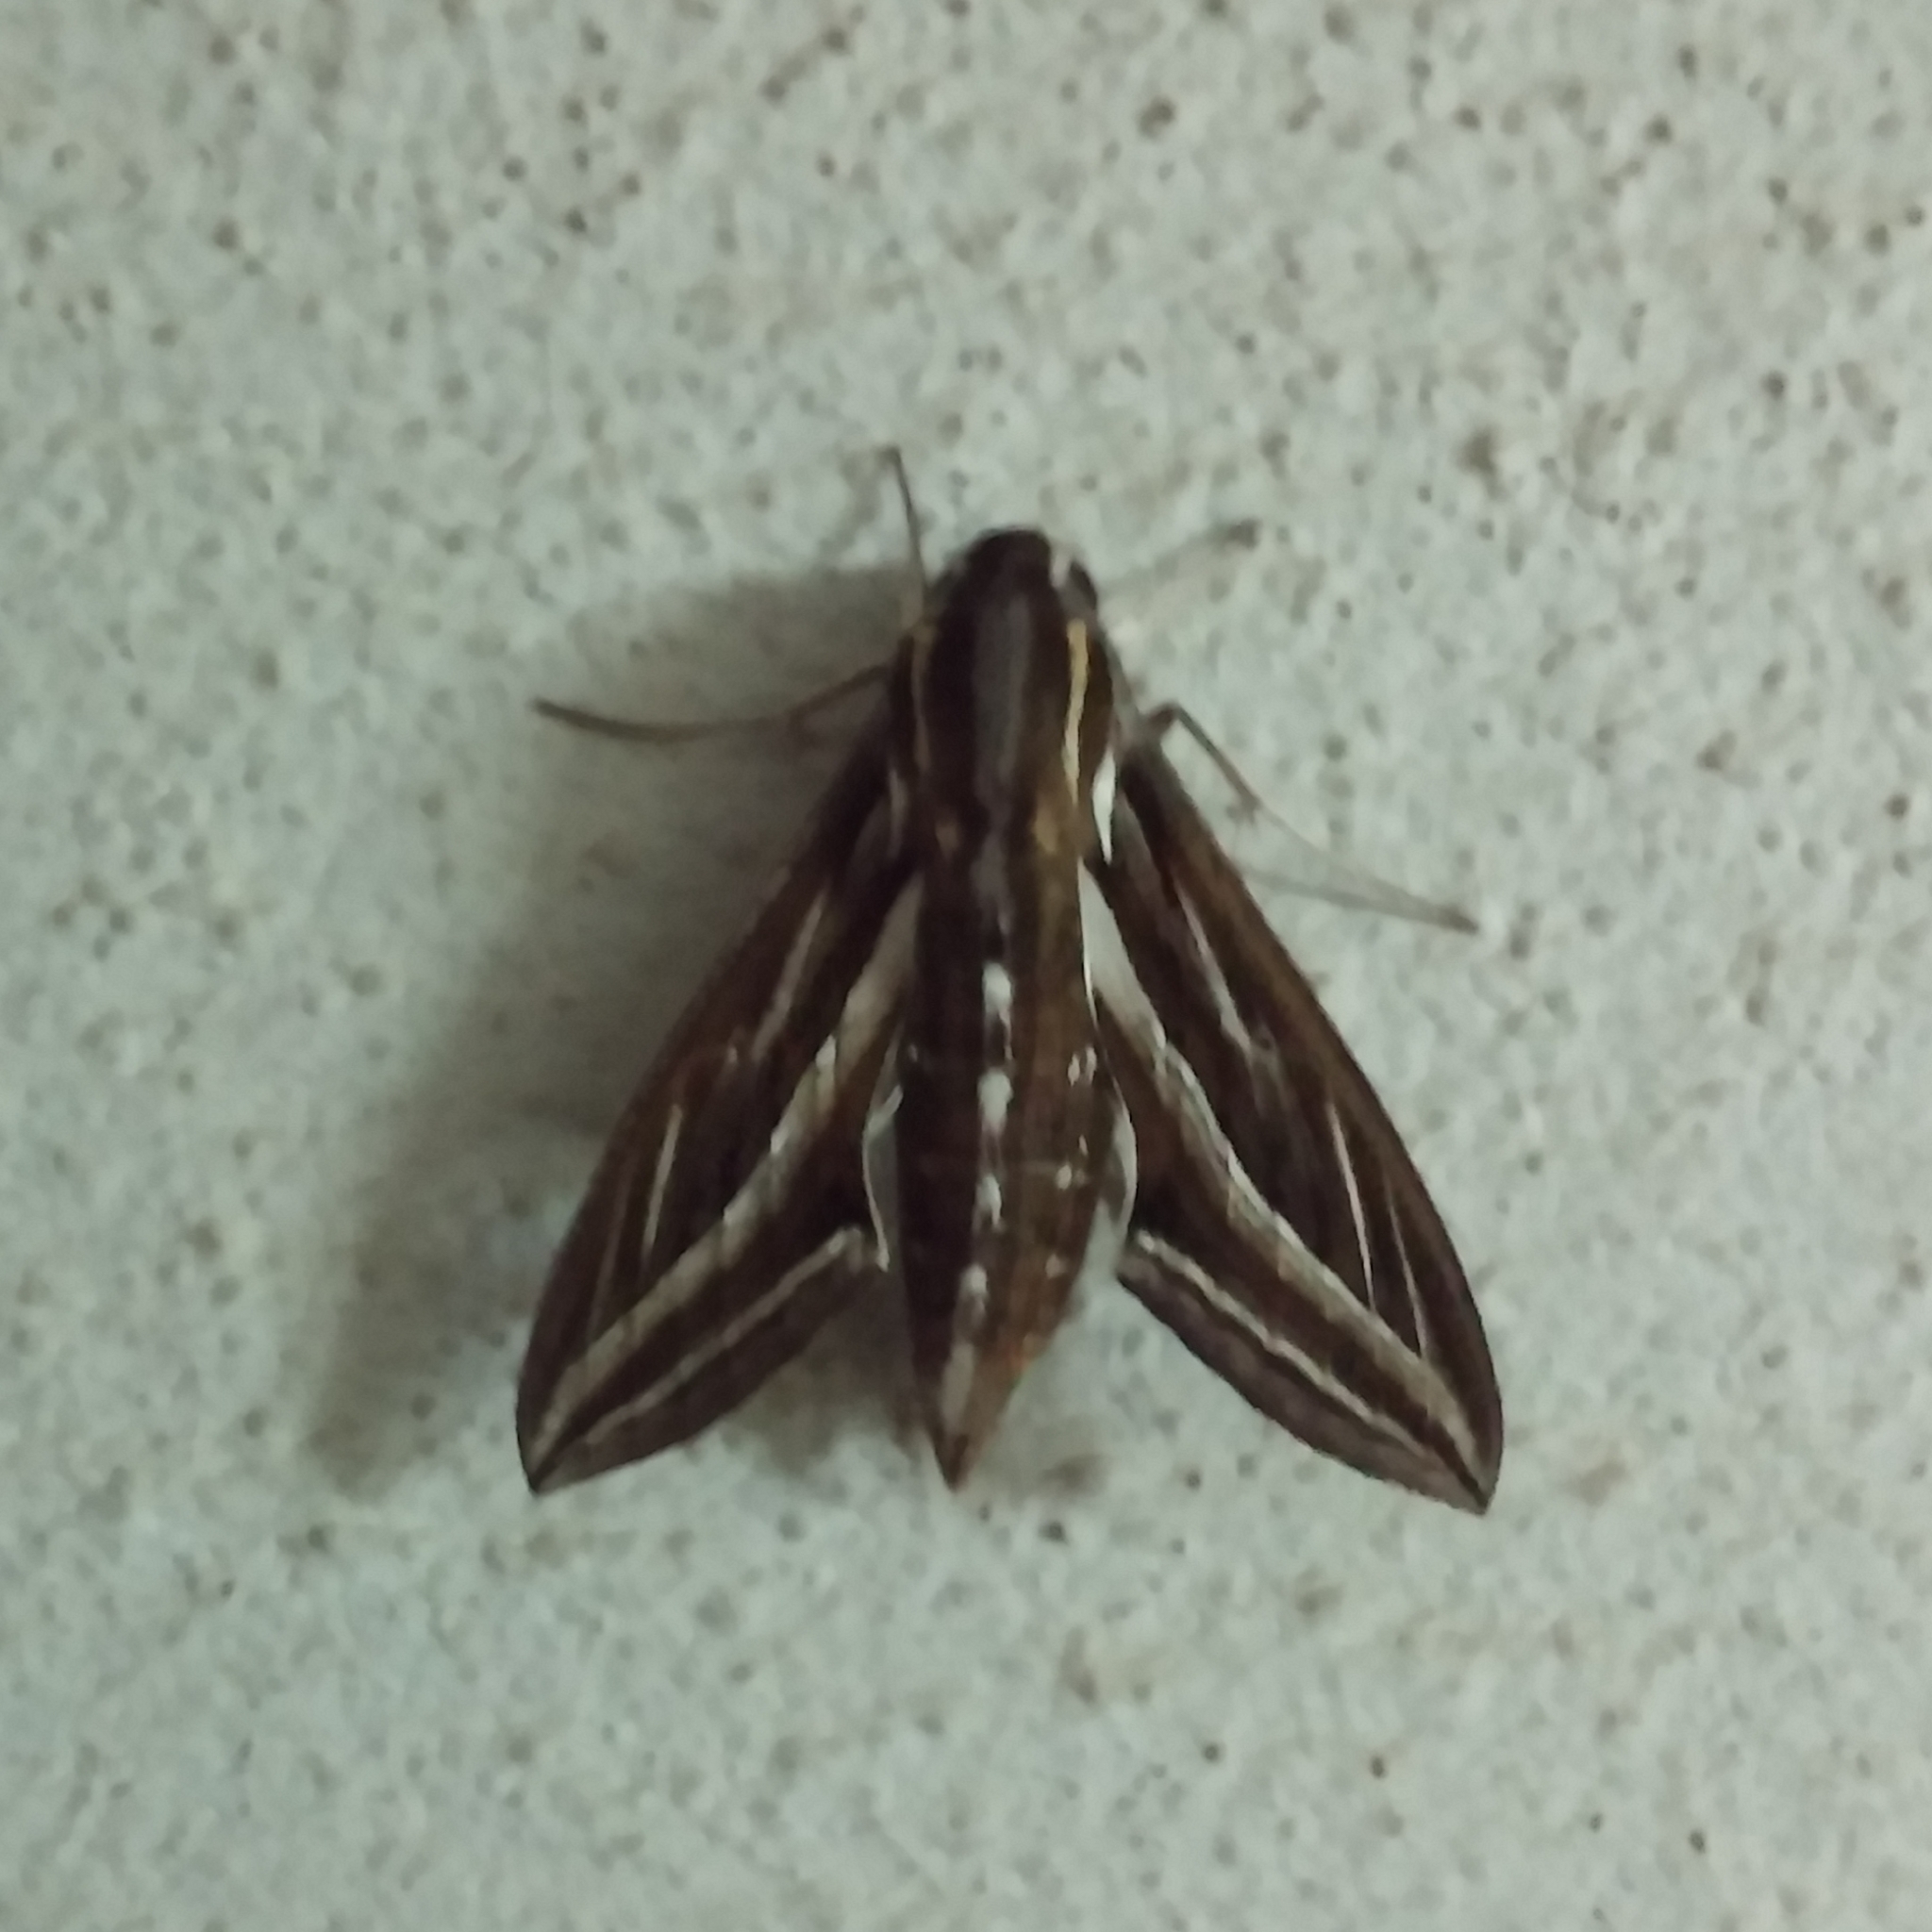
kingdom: Animalia
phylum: Arthropoda
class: Insecta
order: Lepidoptera
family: Sphingidae
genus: Hippotion
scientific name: Hippotion celerio
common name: Silver-striped hawk-moth
